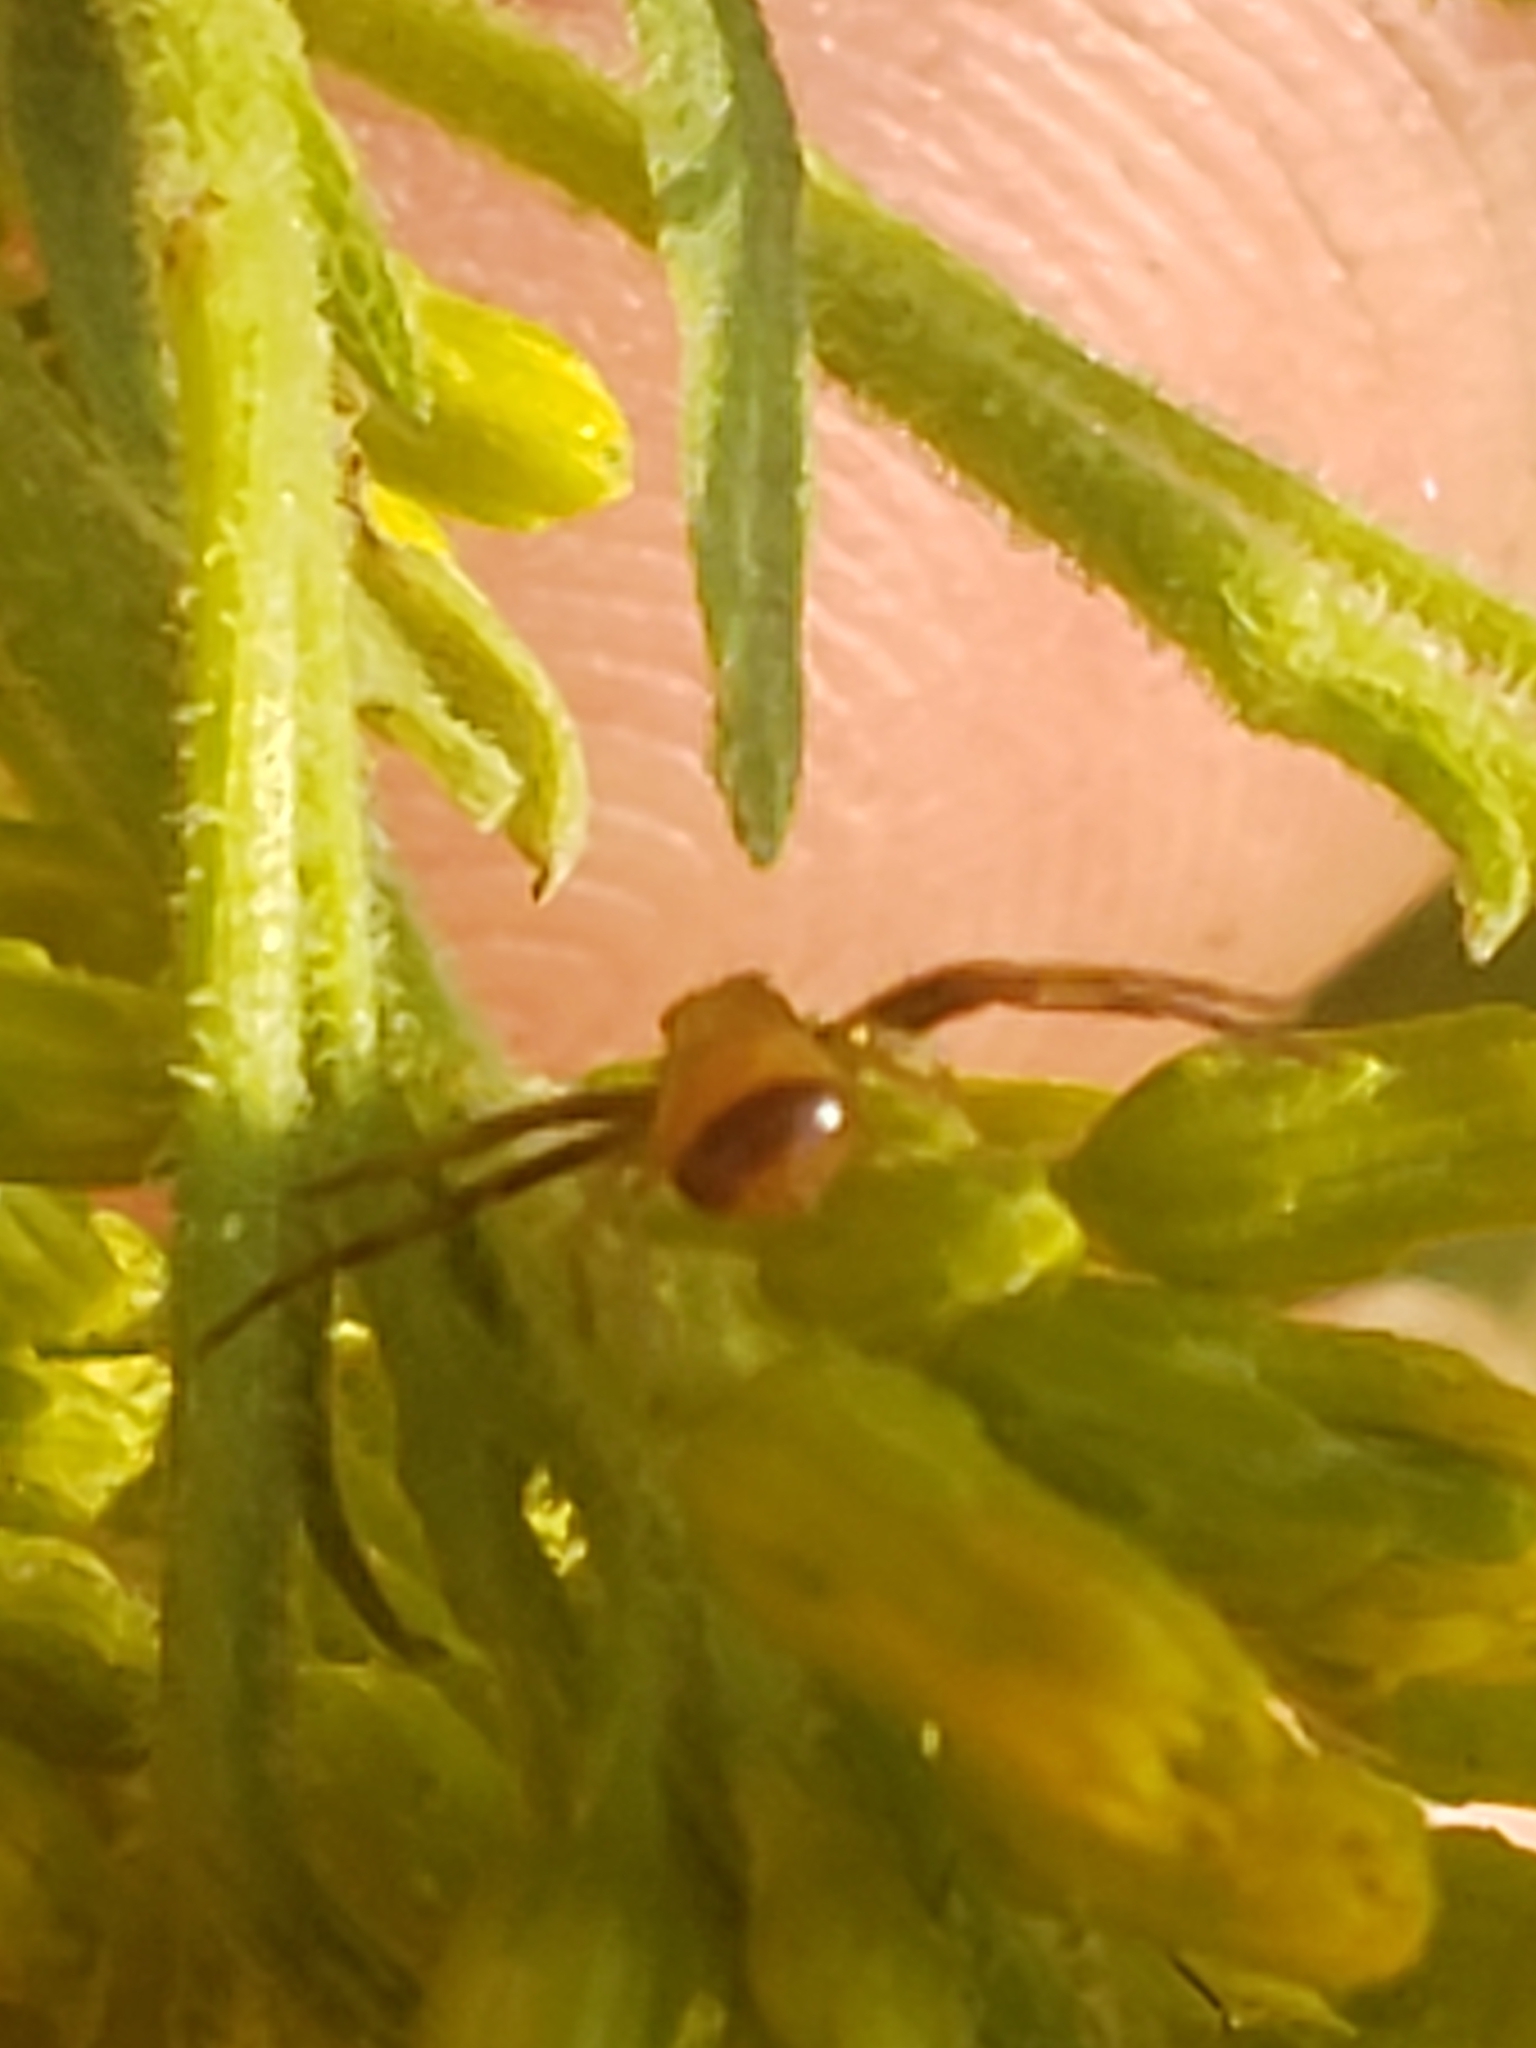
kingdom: Animalia
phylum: Arthropoda
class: Arachnida
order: Araneae
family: Thomisidae
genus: Synema
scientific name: Synema parvulum
